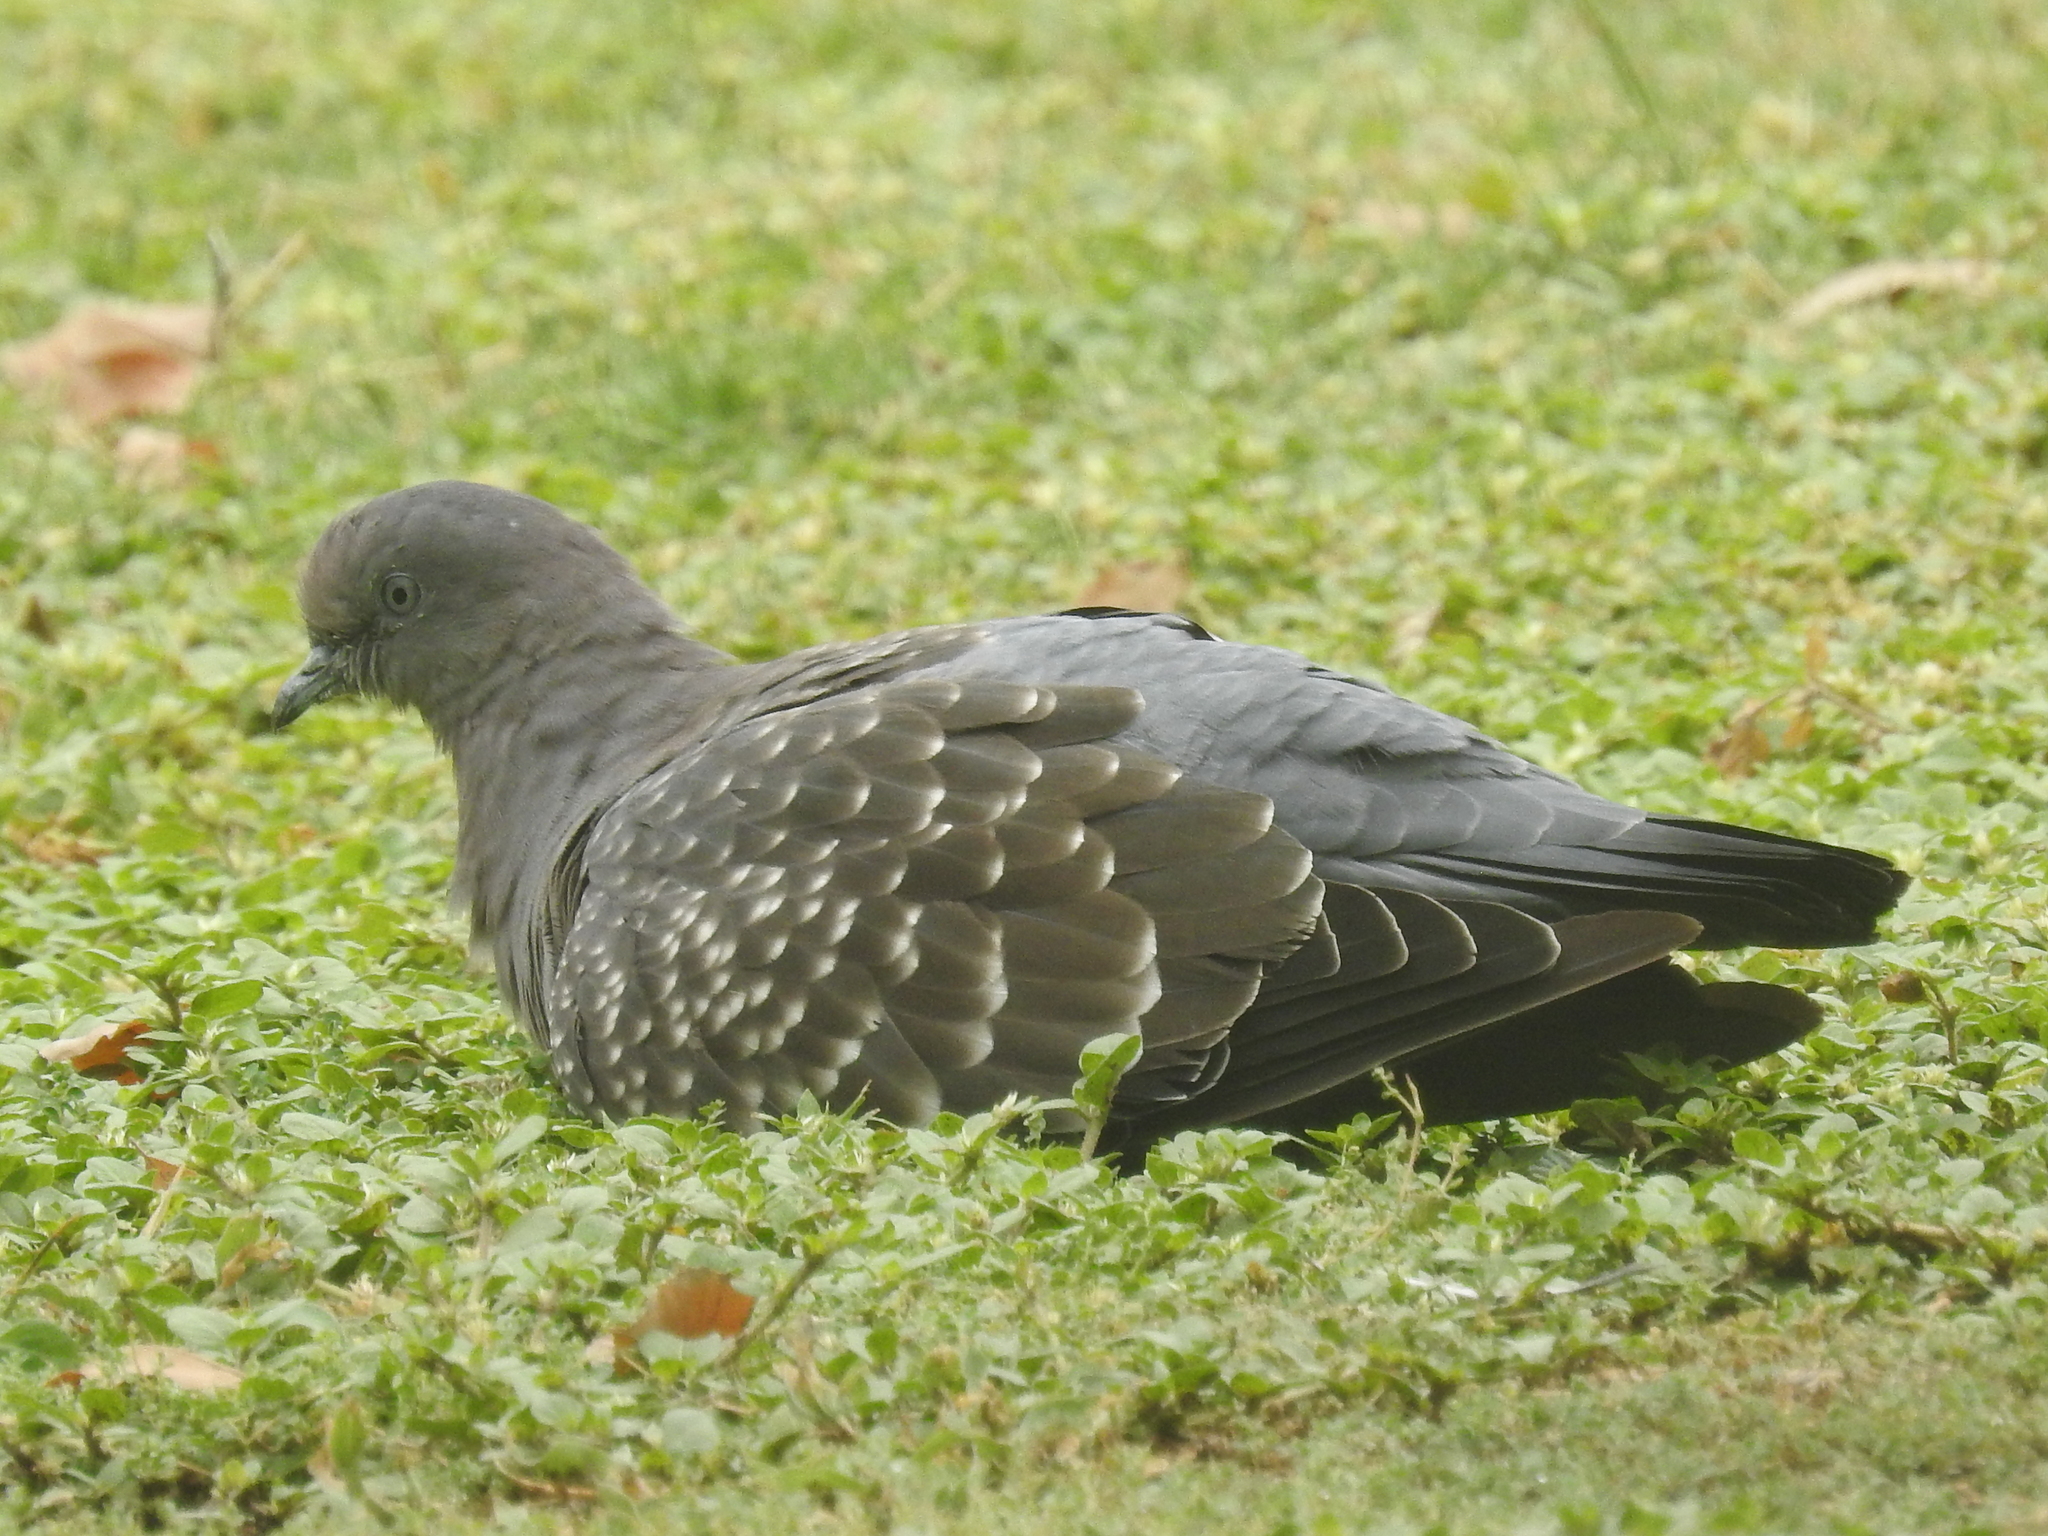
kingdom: Animalia
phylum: Chordata
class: Aves
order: Columbiformes
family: Columbidae
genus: Patagioenas
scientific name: Patagioenas maculosa
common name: Spot-winged pigeon
